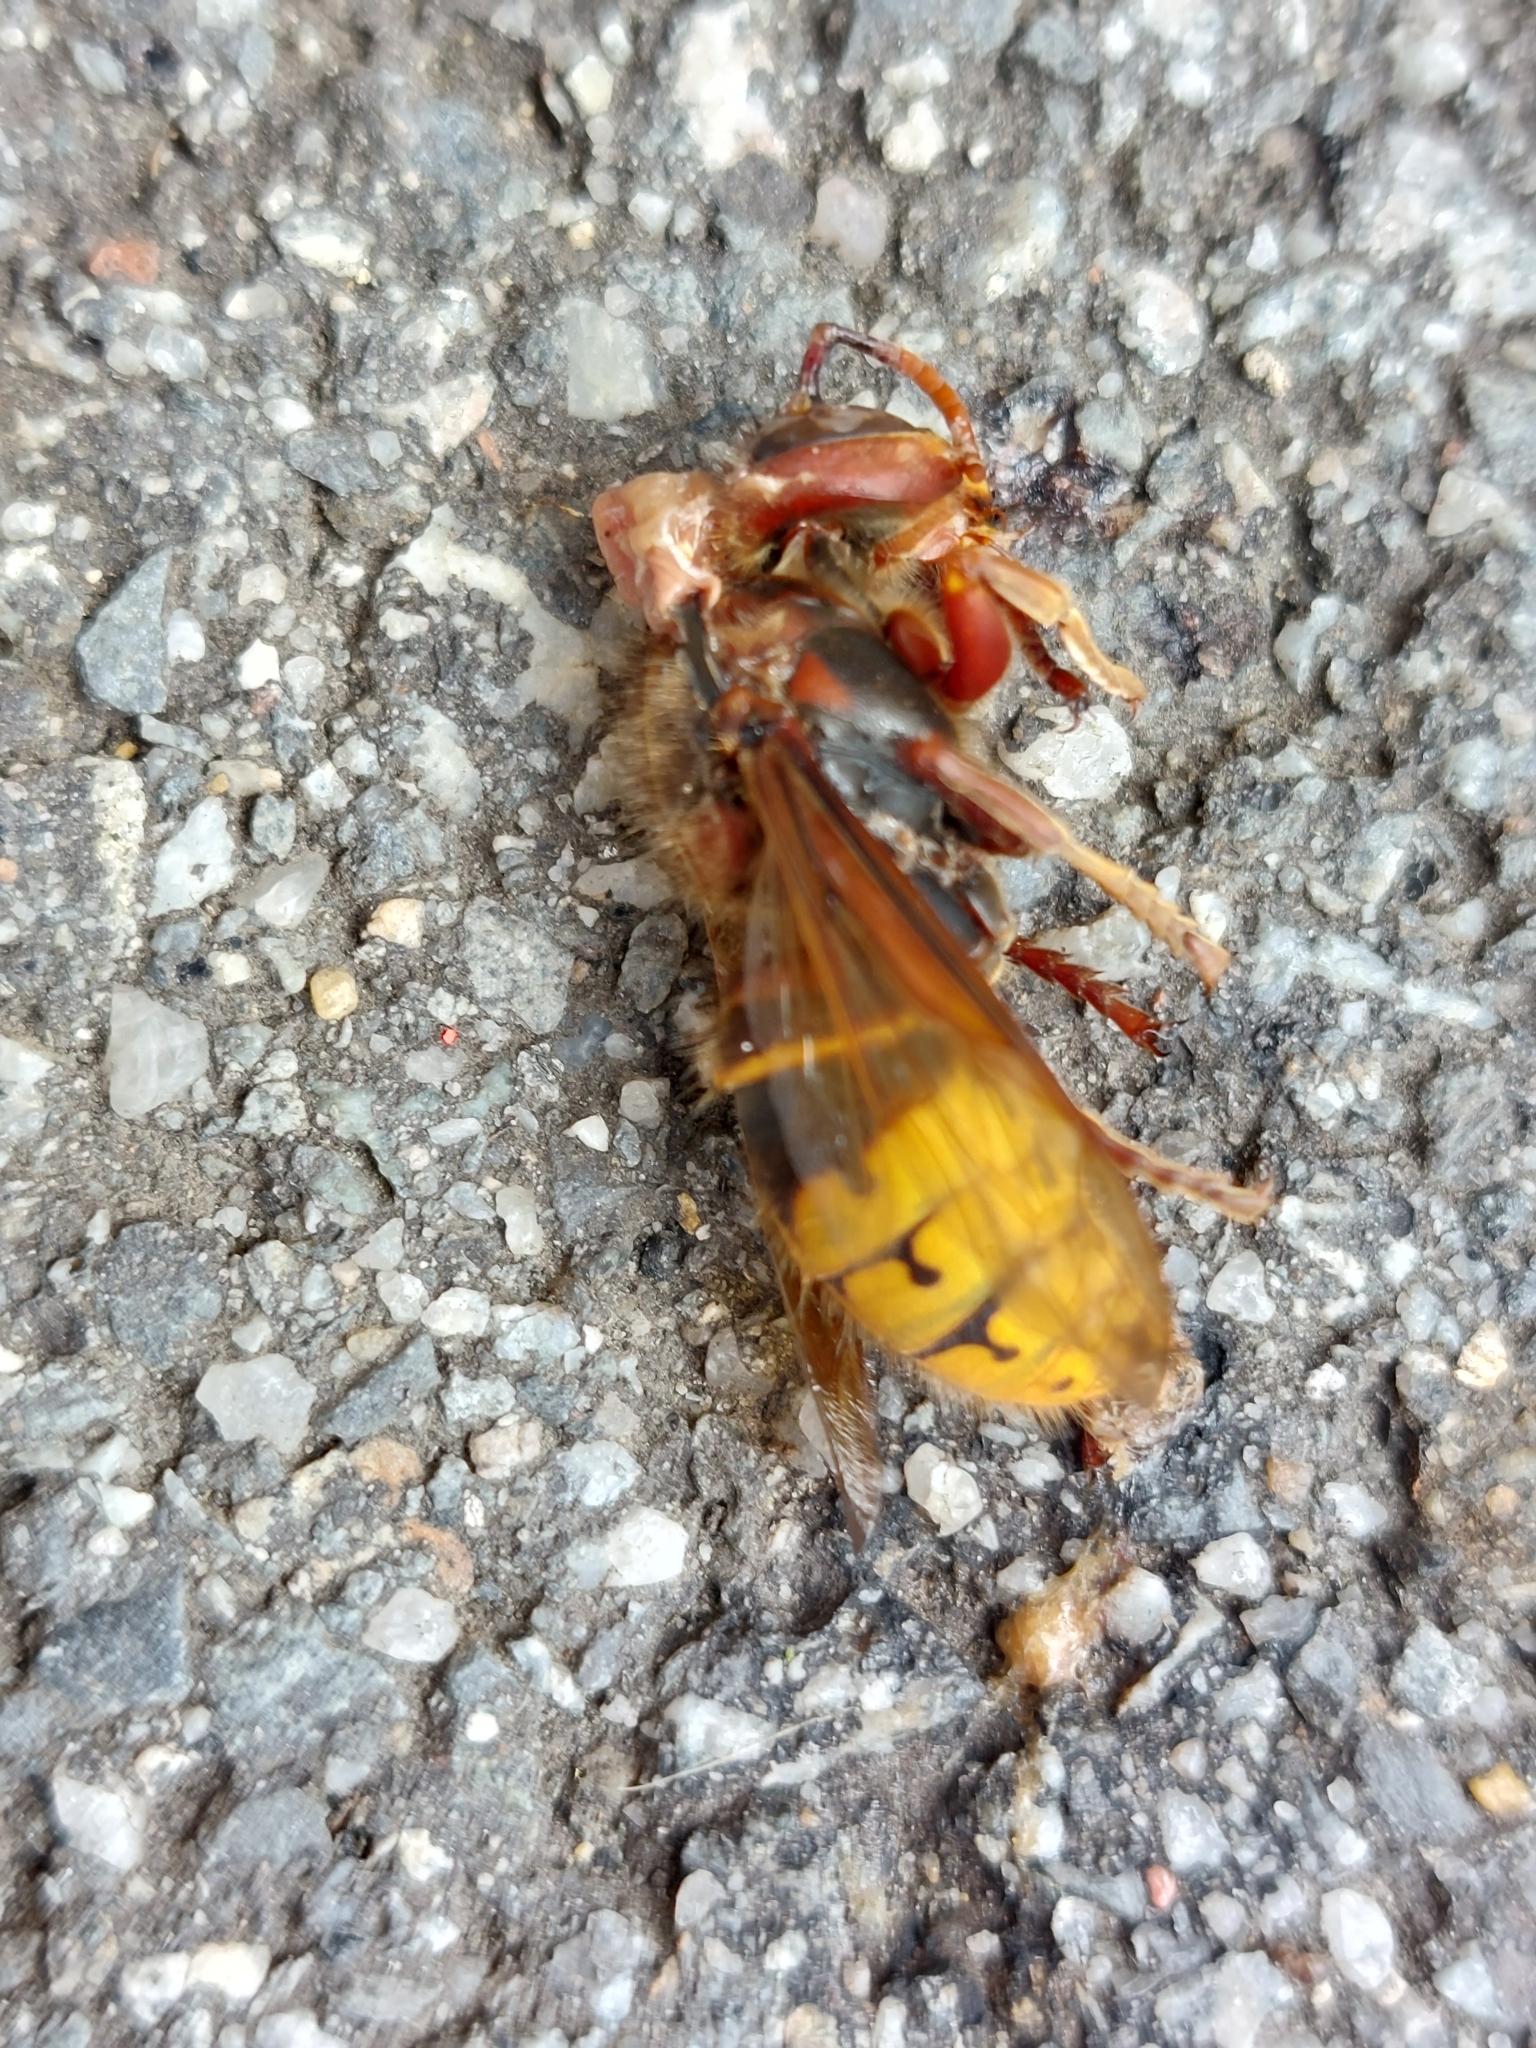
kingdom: Animalia
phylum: Arthropoda
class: Insecta
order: Hymenoptera
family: Vespidae
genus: Vespa
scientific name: Vespa crabro
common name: Hornet
